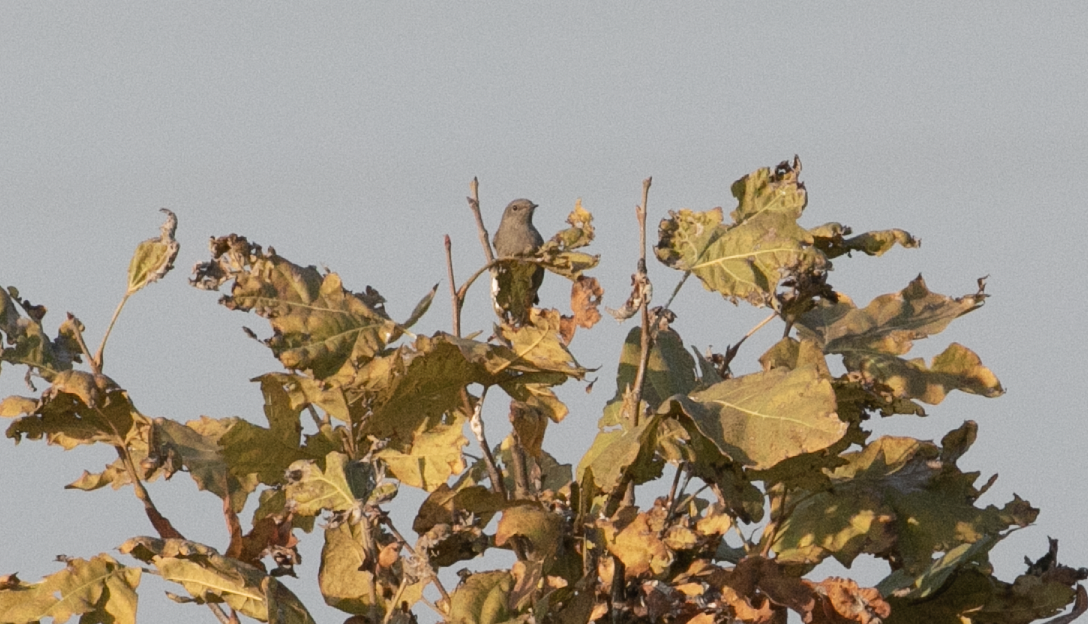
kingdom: Animalia
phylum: Chordata
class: Aves
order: Passeriformes
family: Muscicapidae
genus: Phoenicurus
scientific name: Phoenicurus ochruros
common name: Black redstart
